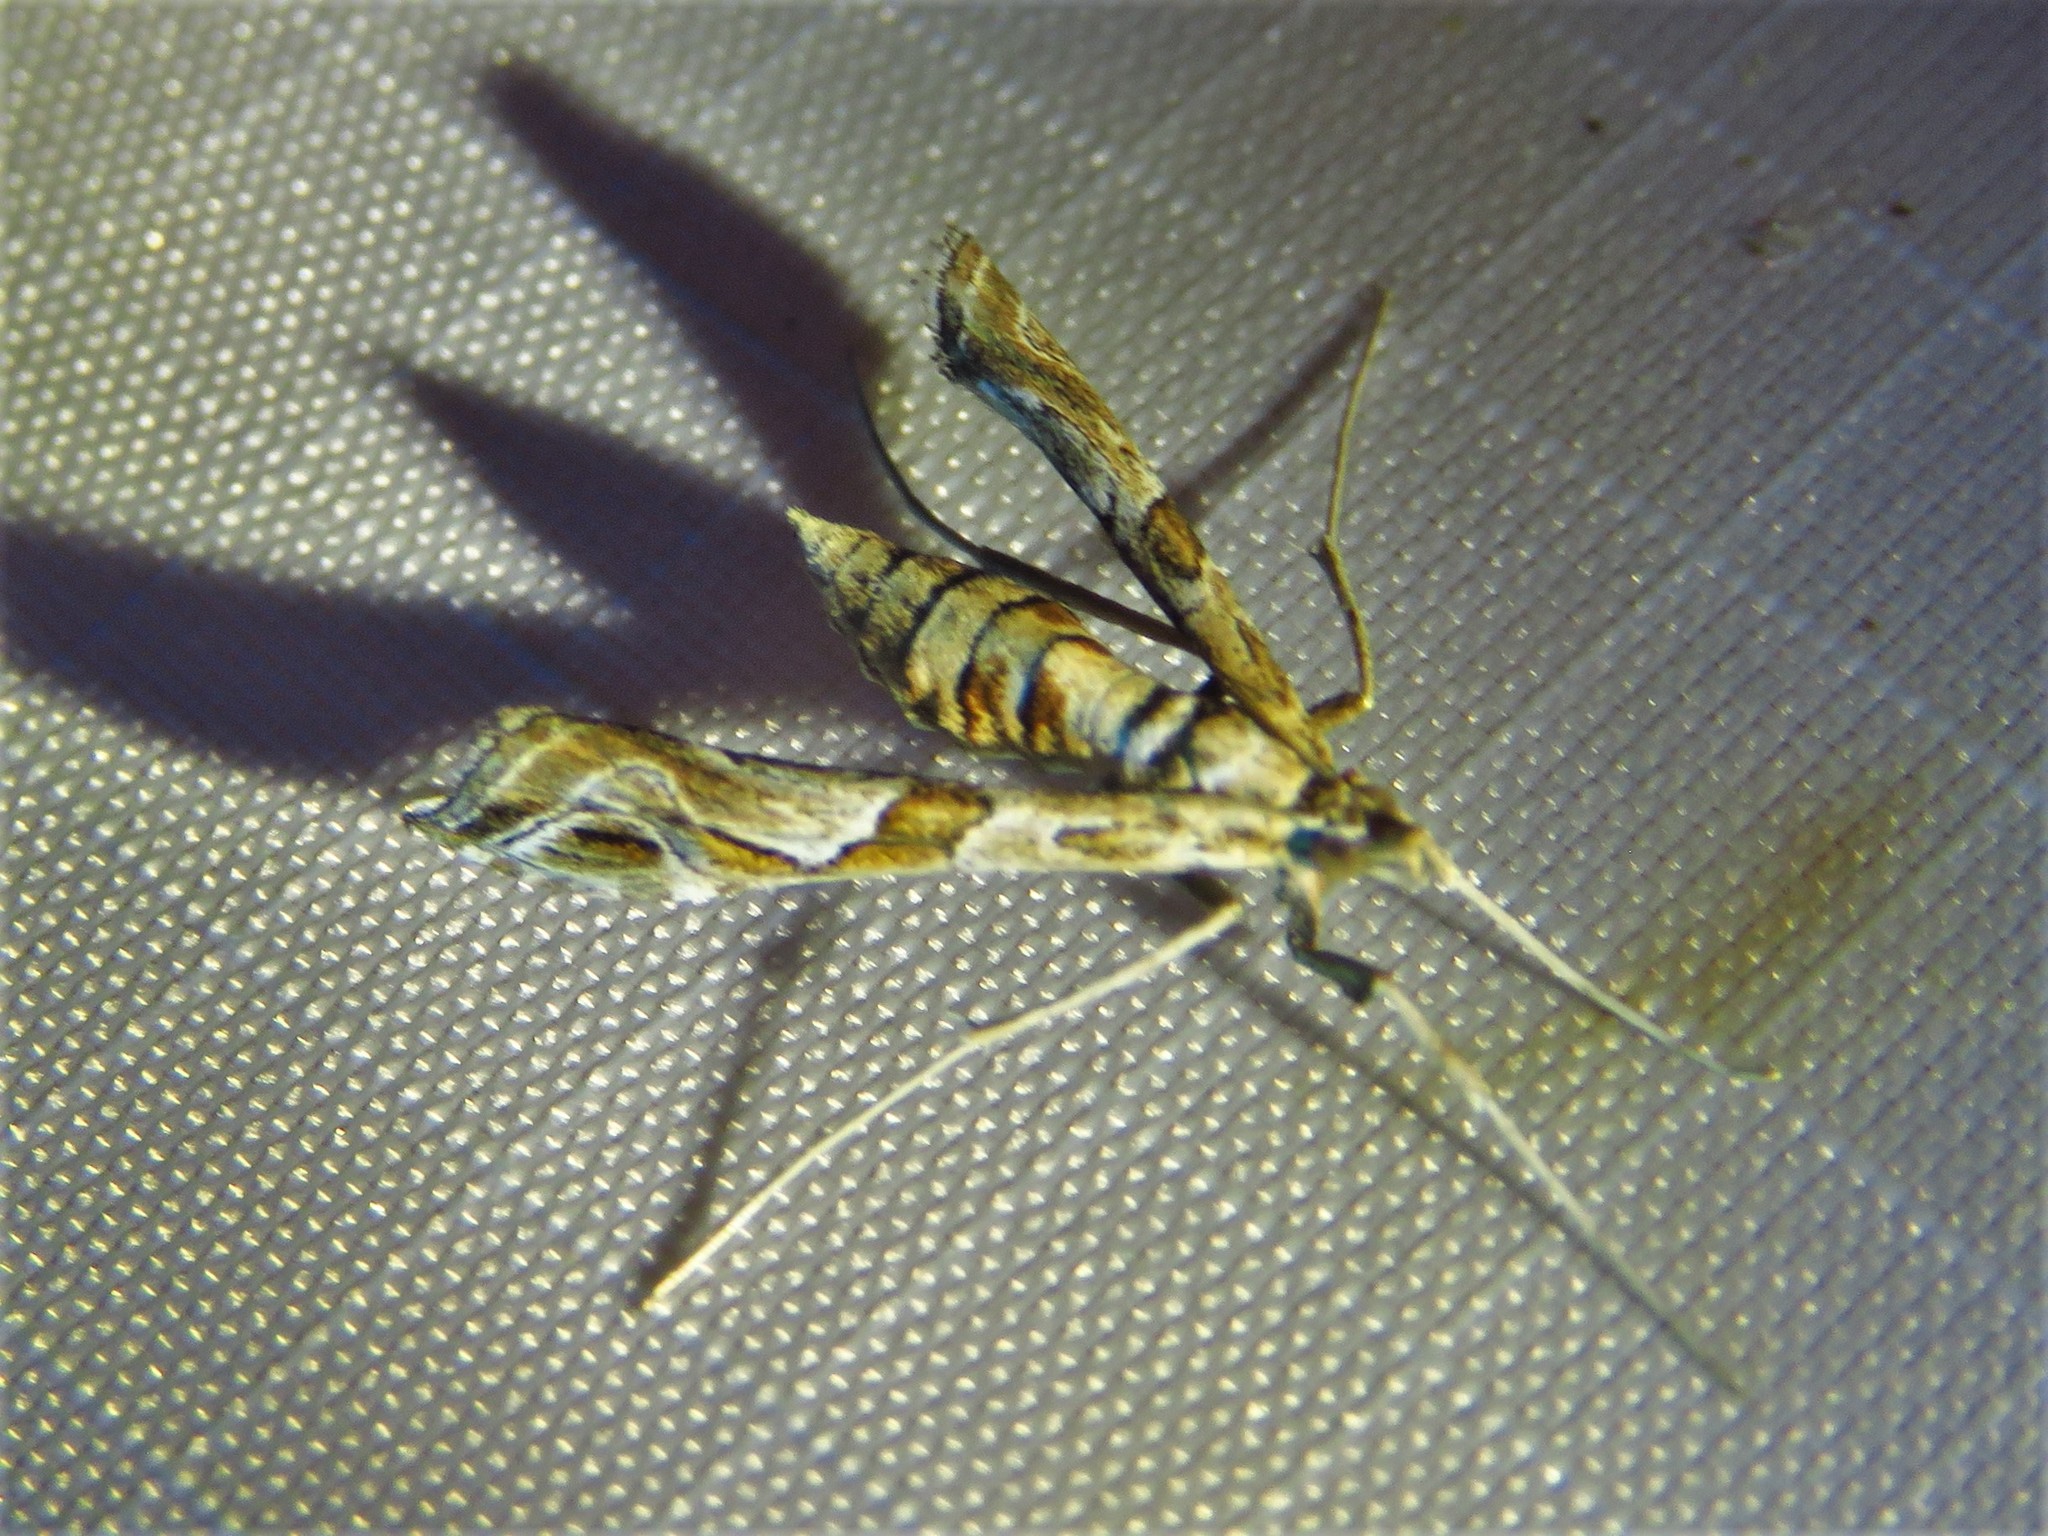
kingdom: Animalia
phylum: Arthropoda
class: Insecta
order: Lepidoptera
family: Crambidae
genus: Lineodes
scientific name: Lineodes integra
